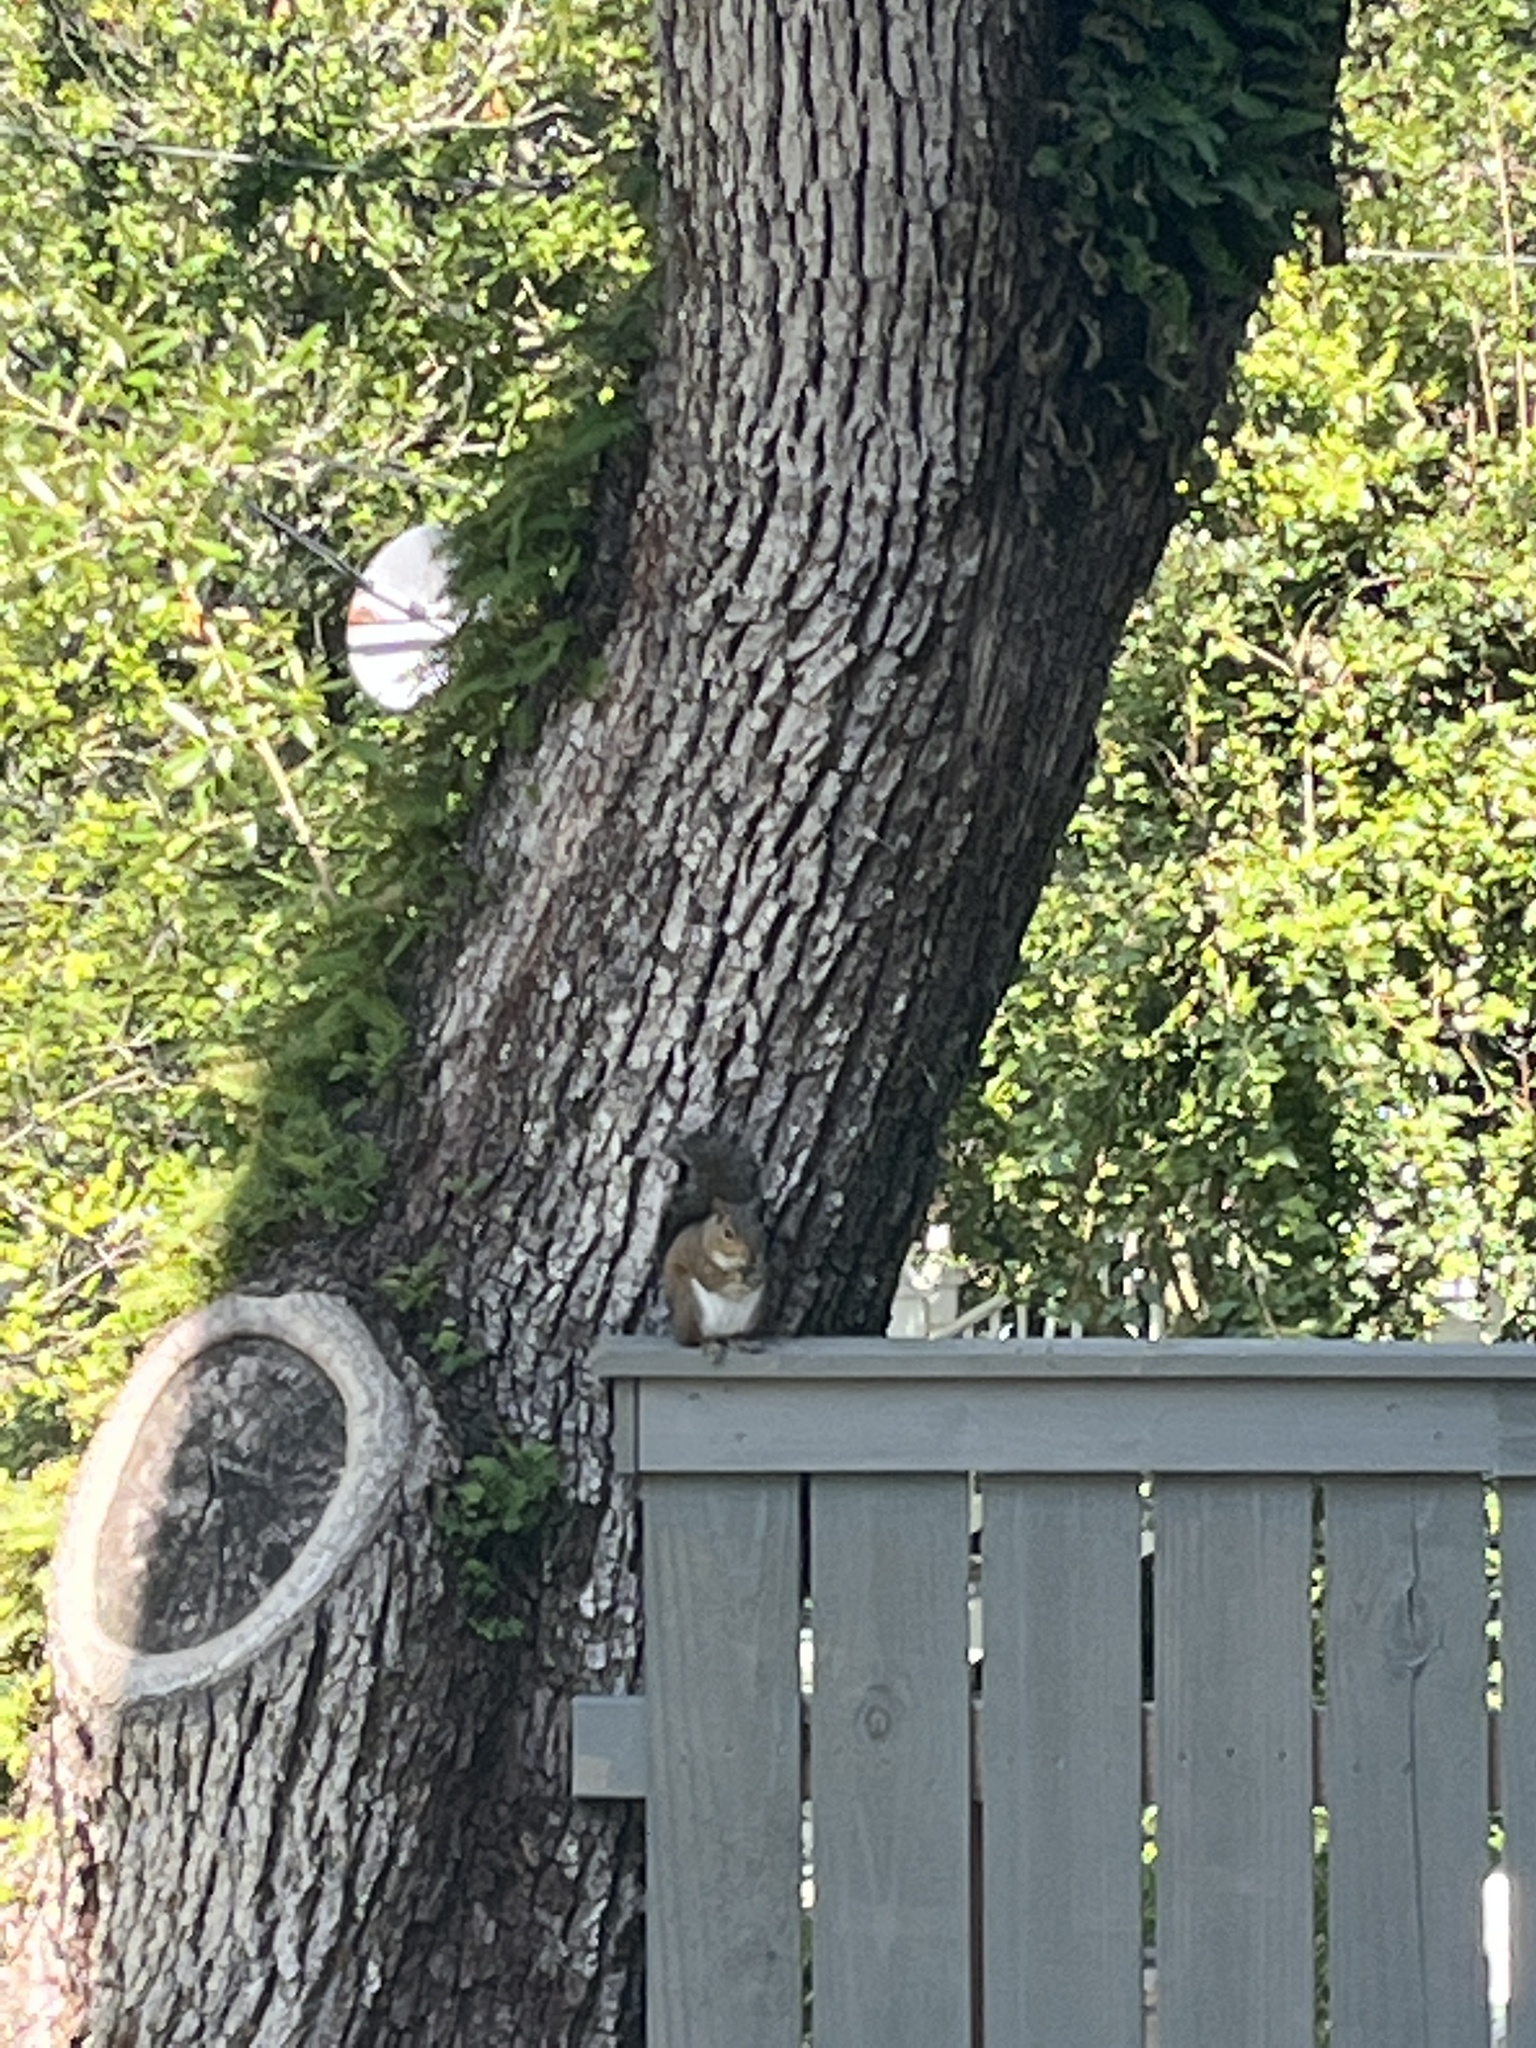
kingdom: Animalia
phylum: Chordata
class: Mammalia
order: Rodentia
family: Sciuridae
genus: Sciurus
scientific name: Sciurus carolinensis
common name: Eastern gray squirrel
